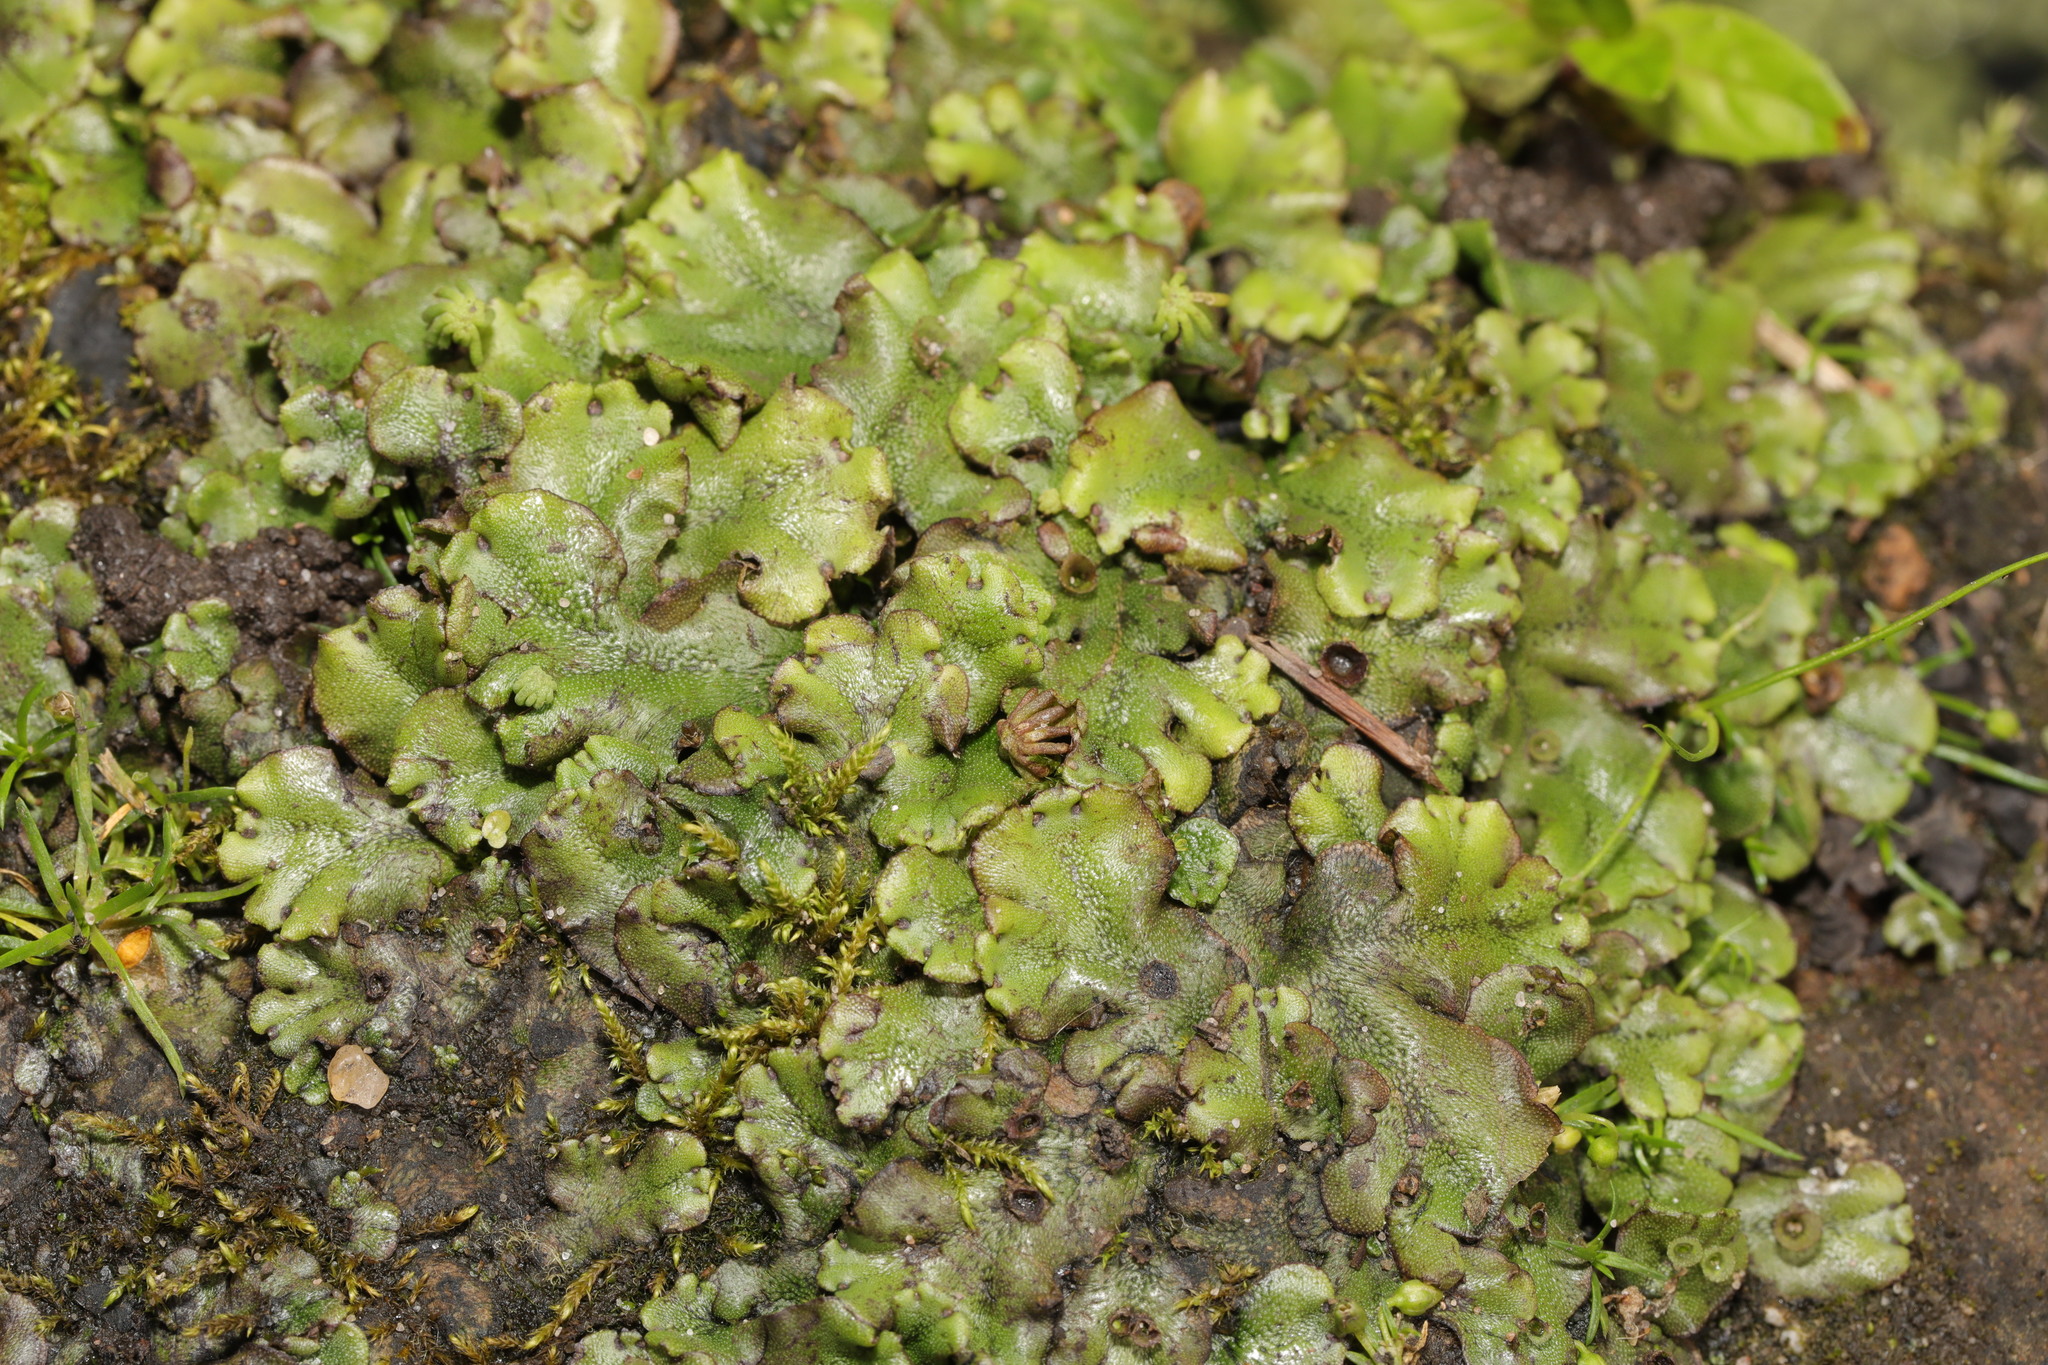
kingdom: Plantae
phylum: Marchantiophyta
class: Marchantiopsida
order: Marchantiales
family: Marchantiaceae
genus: Marchantia
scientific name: Marchantia polymorpha
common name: Common liverwort
